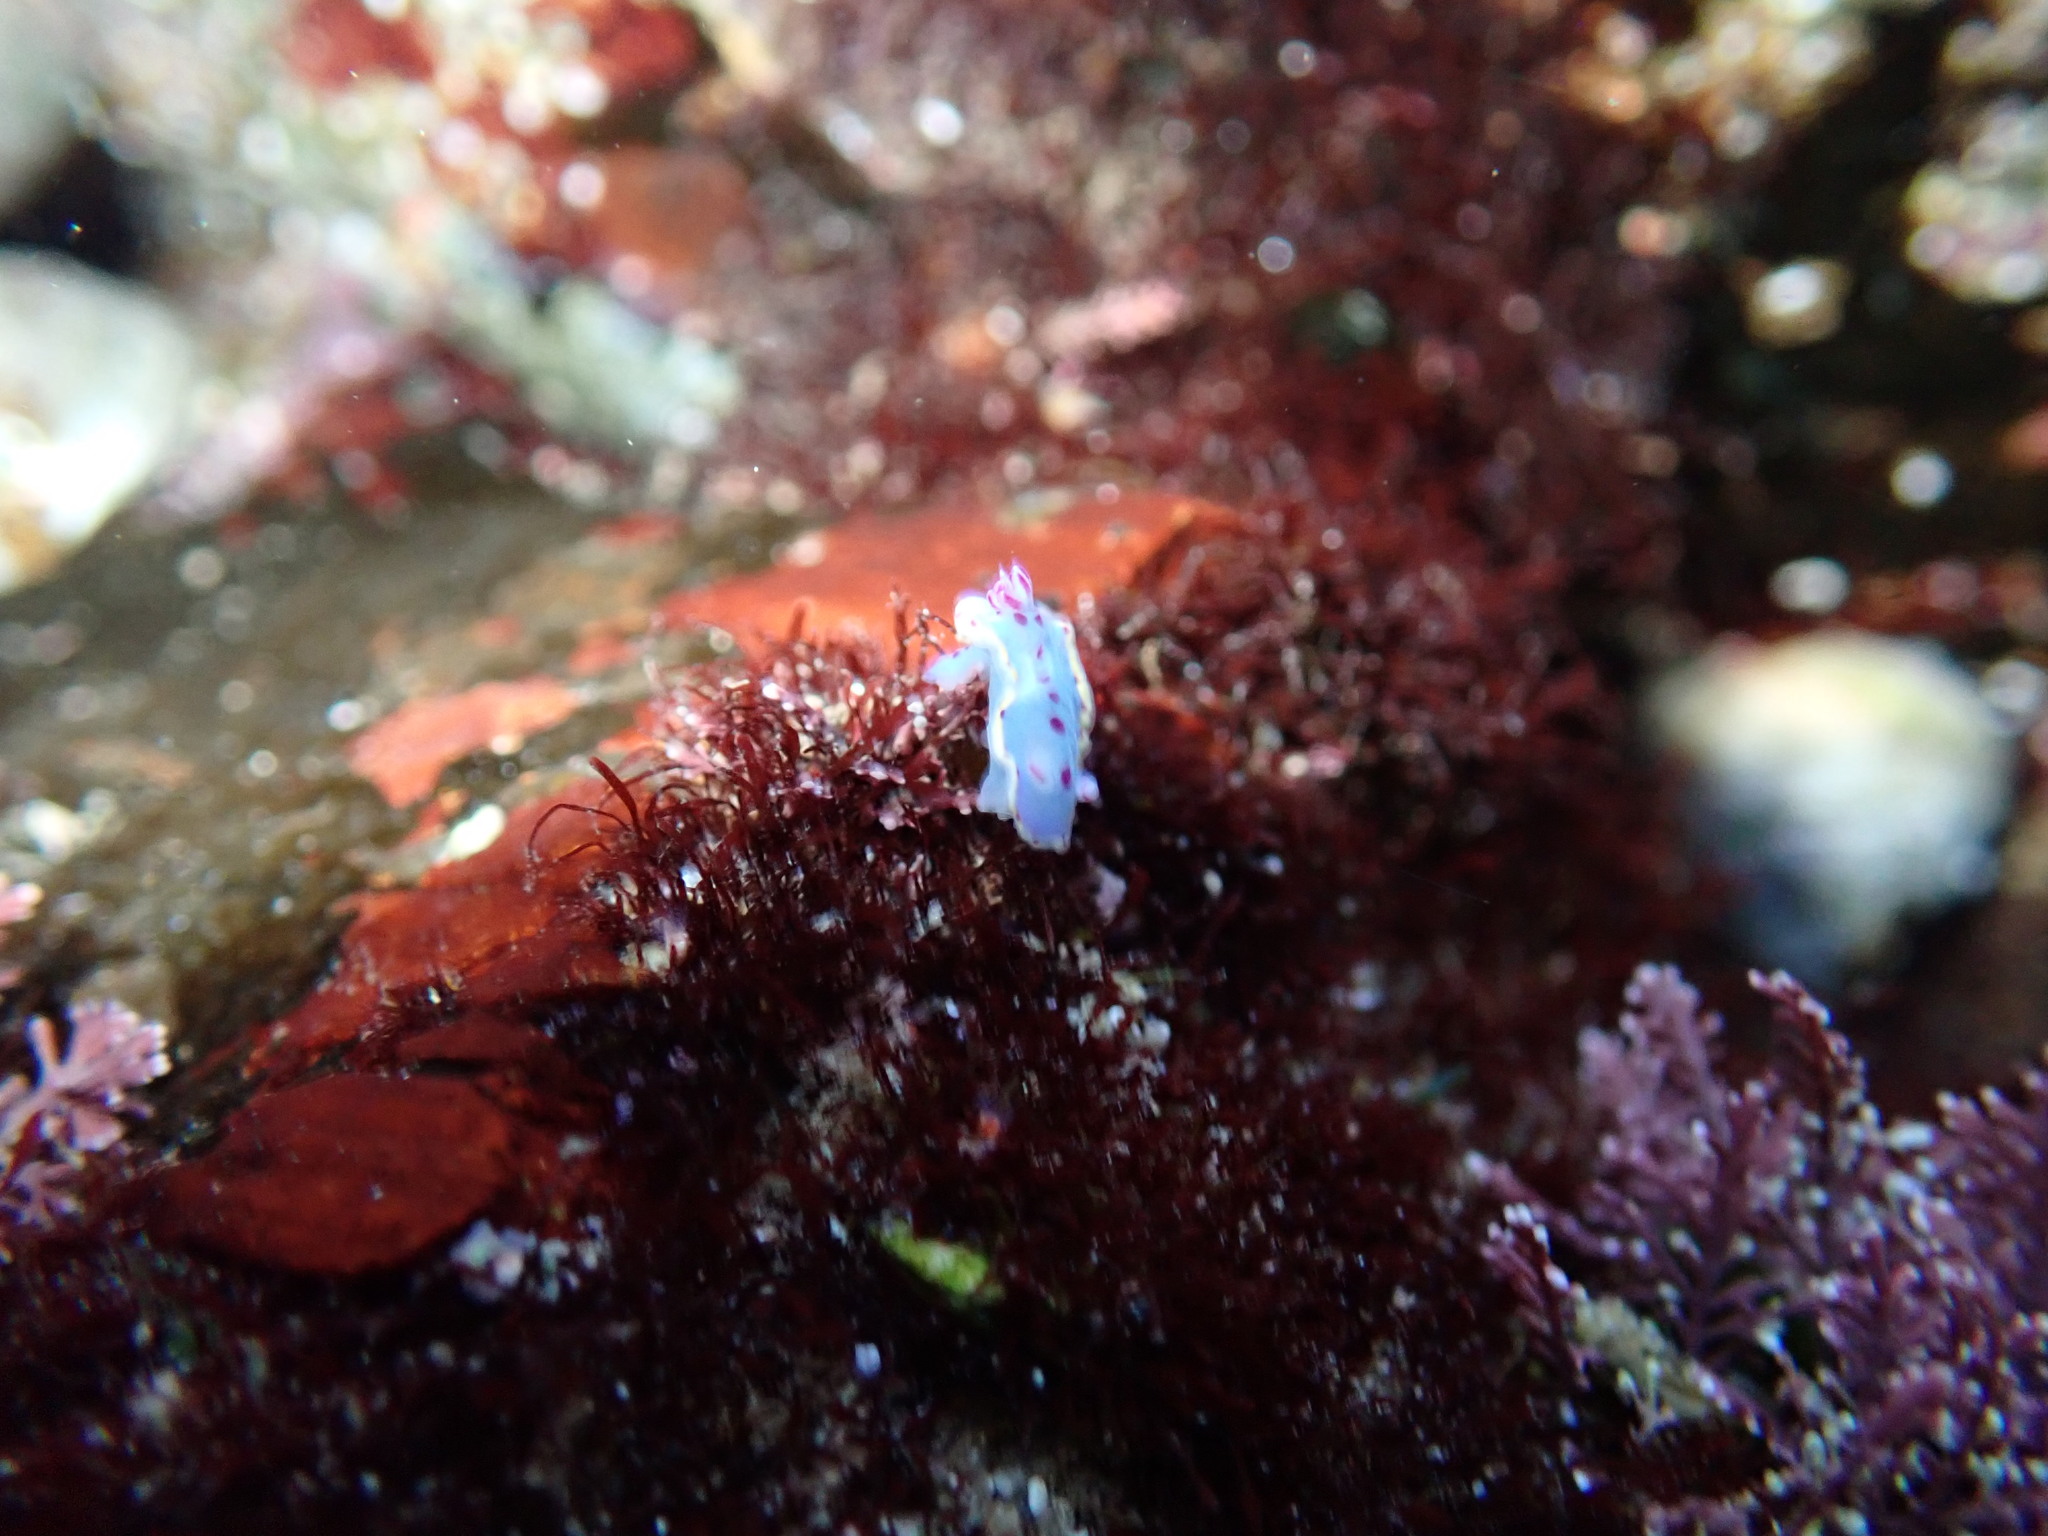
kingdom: Animalia
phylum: Mollusca
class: Gastropoda
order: Nudibranchia
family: Chromodorididae
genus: Hypselodoris
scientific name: Hypselodoris bennetti
